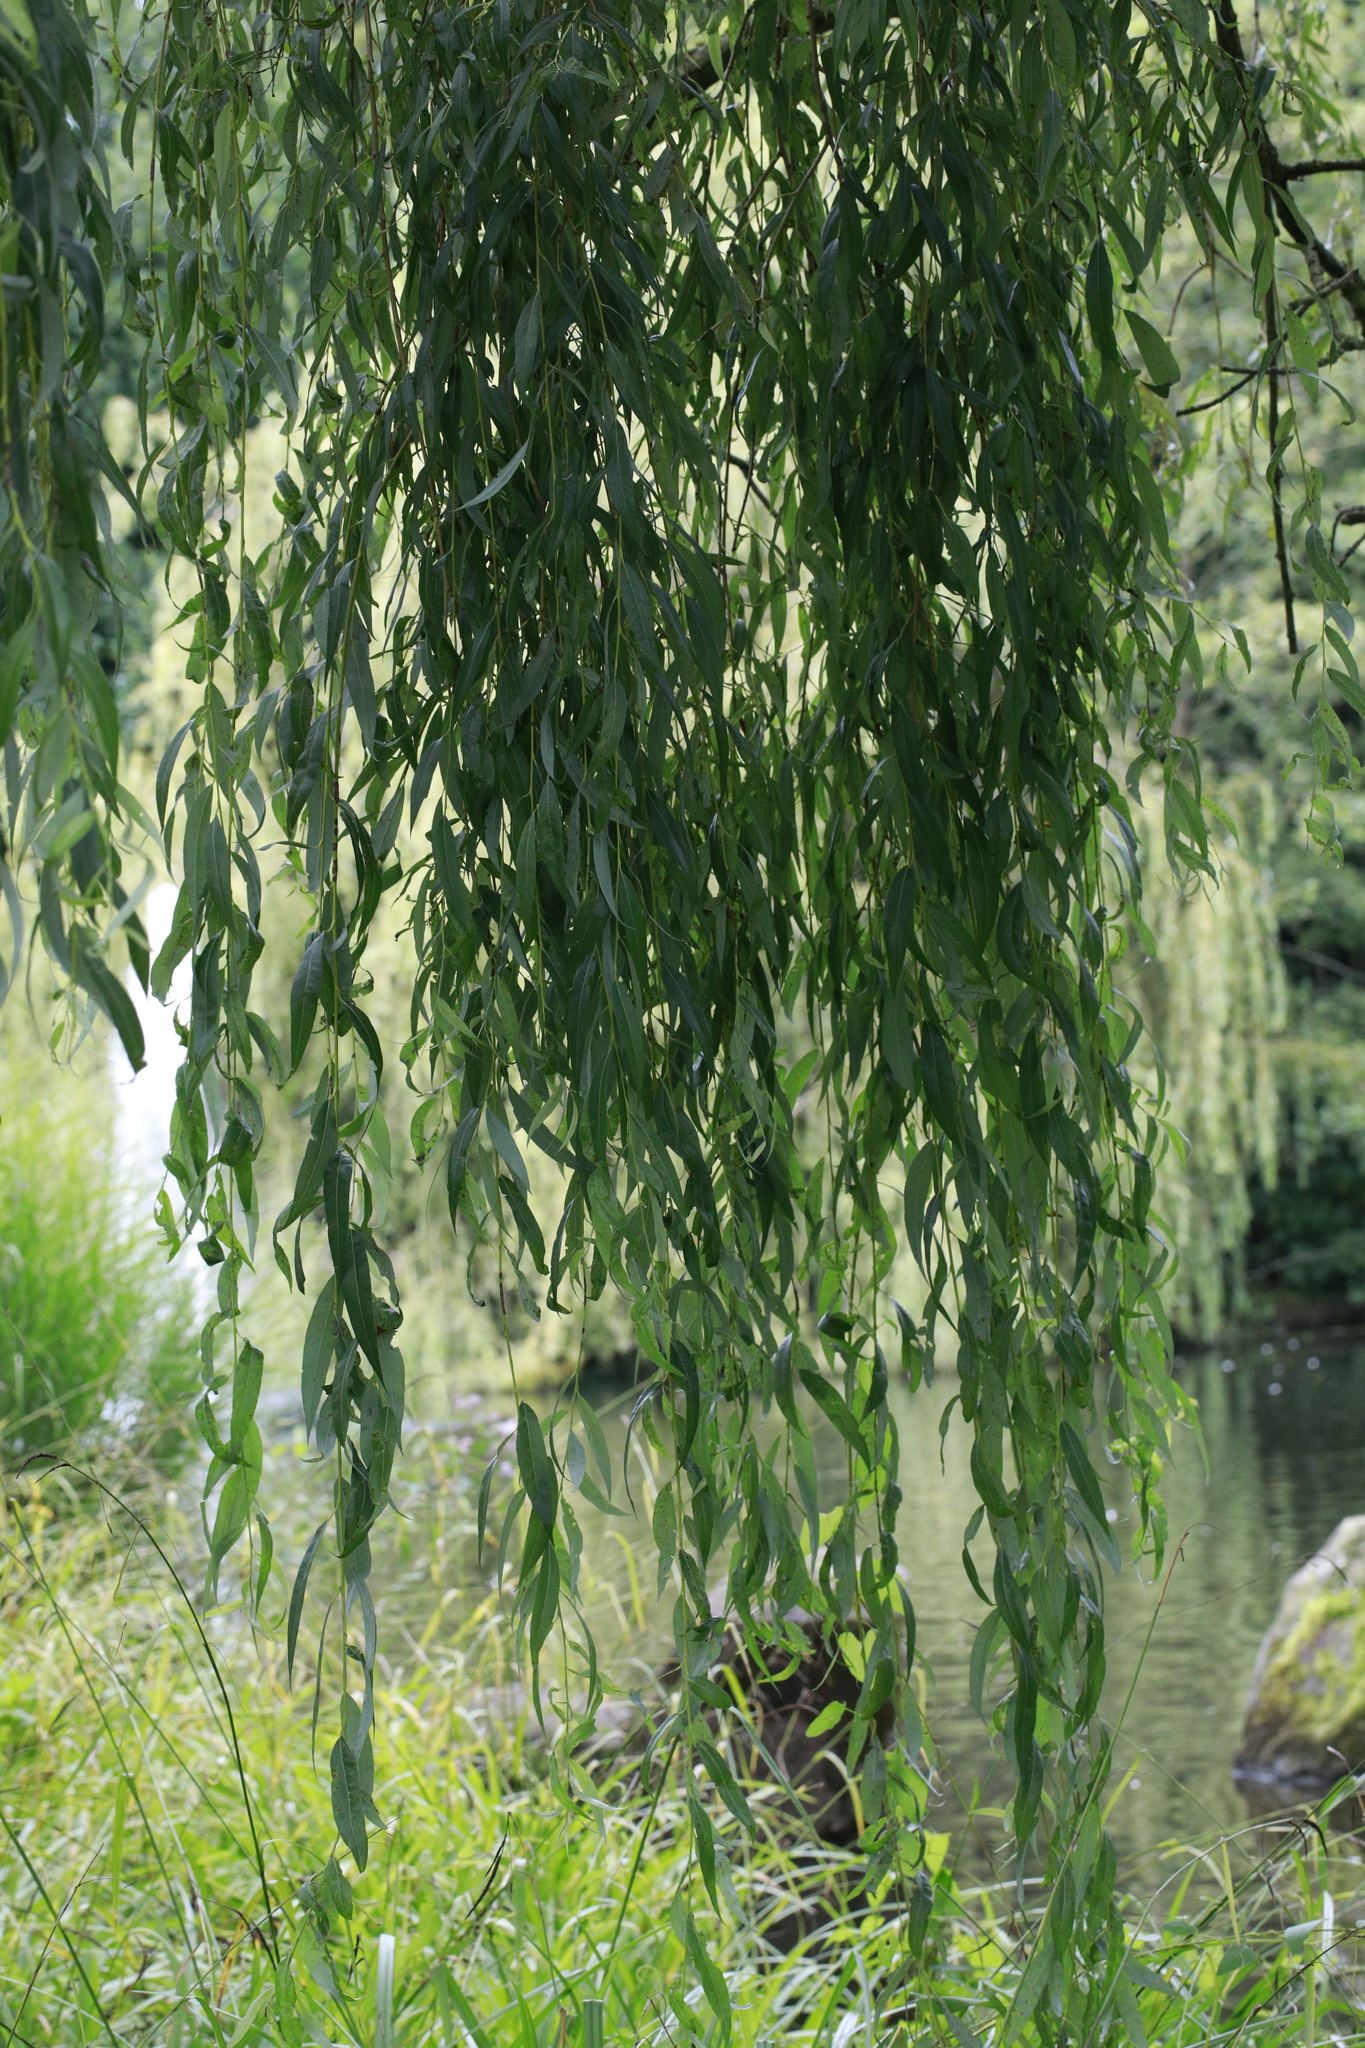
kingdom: Plantae
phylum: Tracheophyta
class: Magnoliopsida
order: Malpighiales
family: Salicaceae
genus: Salix
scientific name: Salix pendulina
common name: Wisconsin weeping willow
